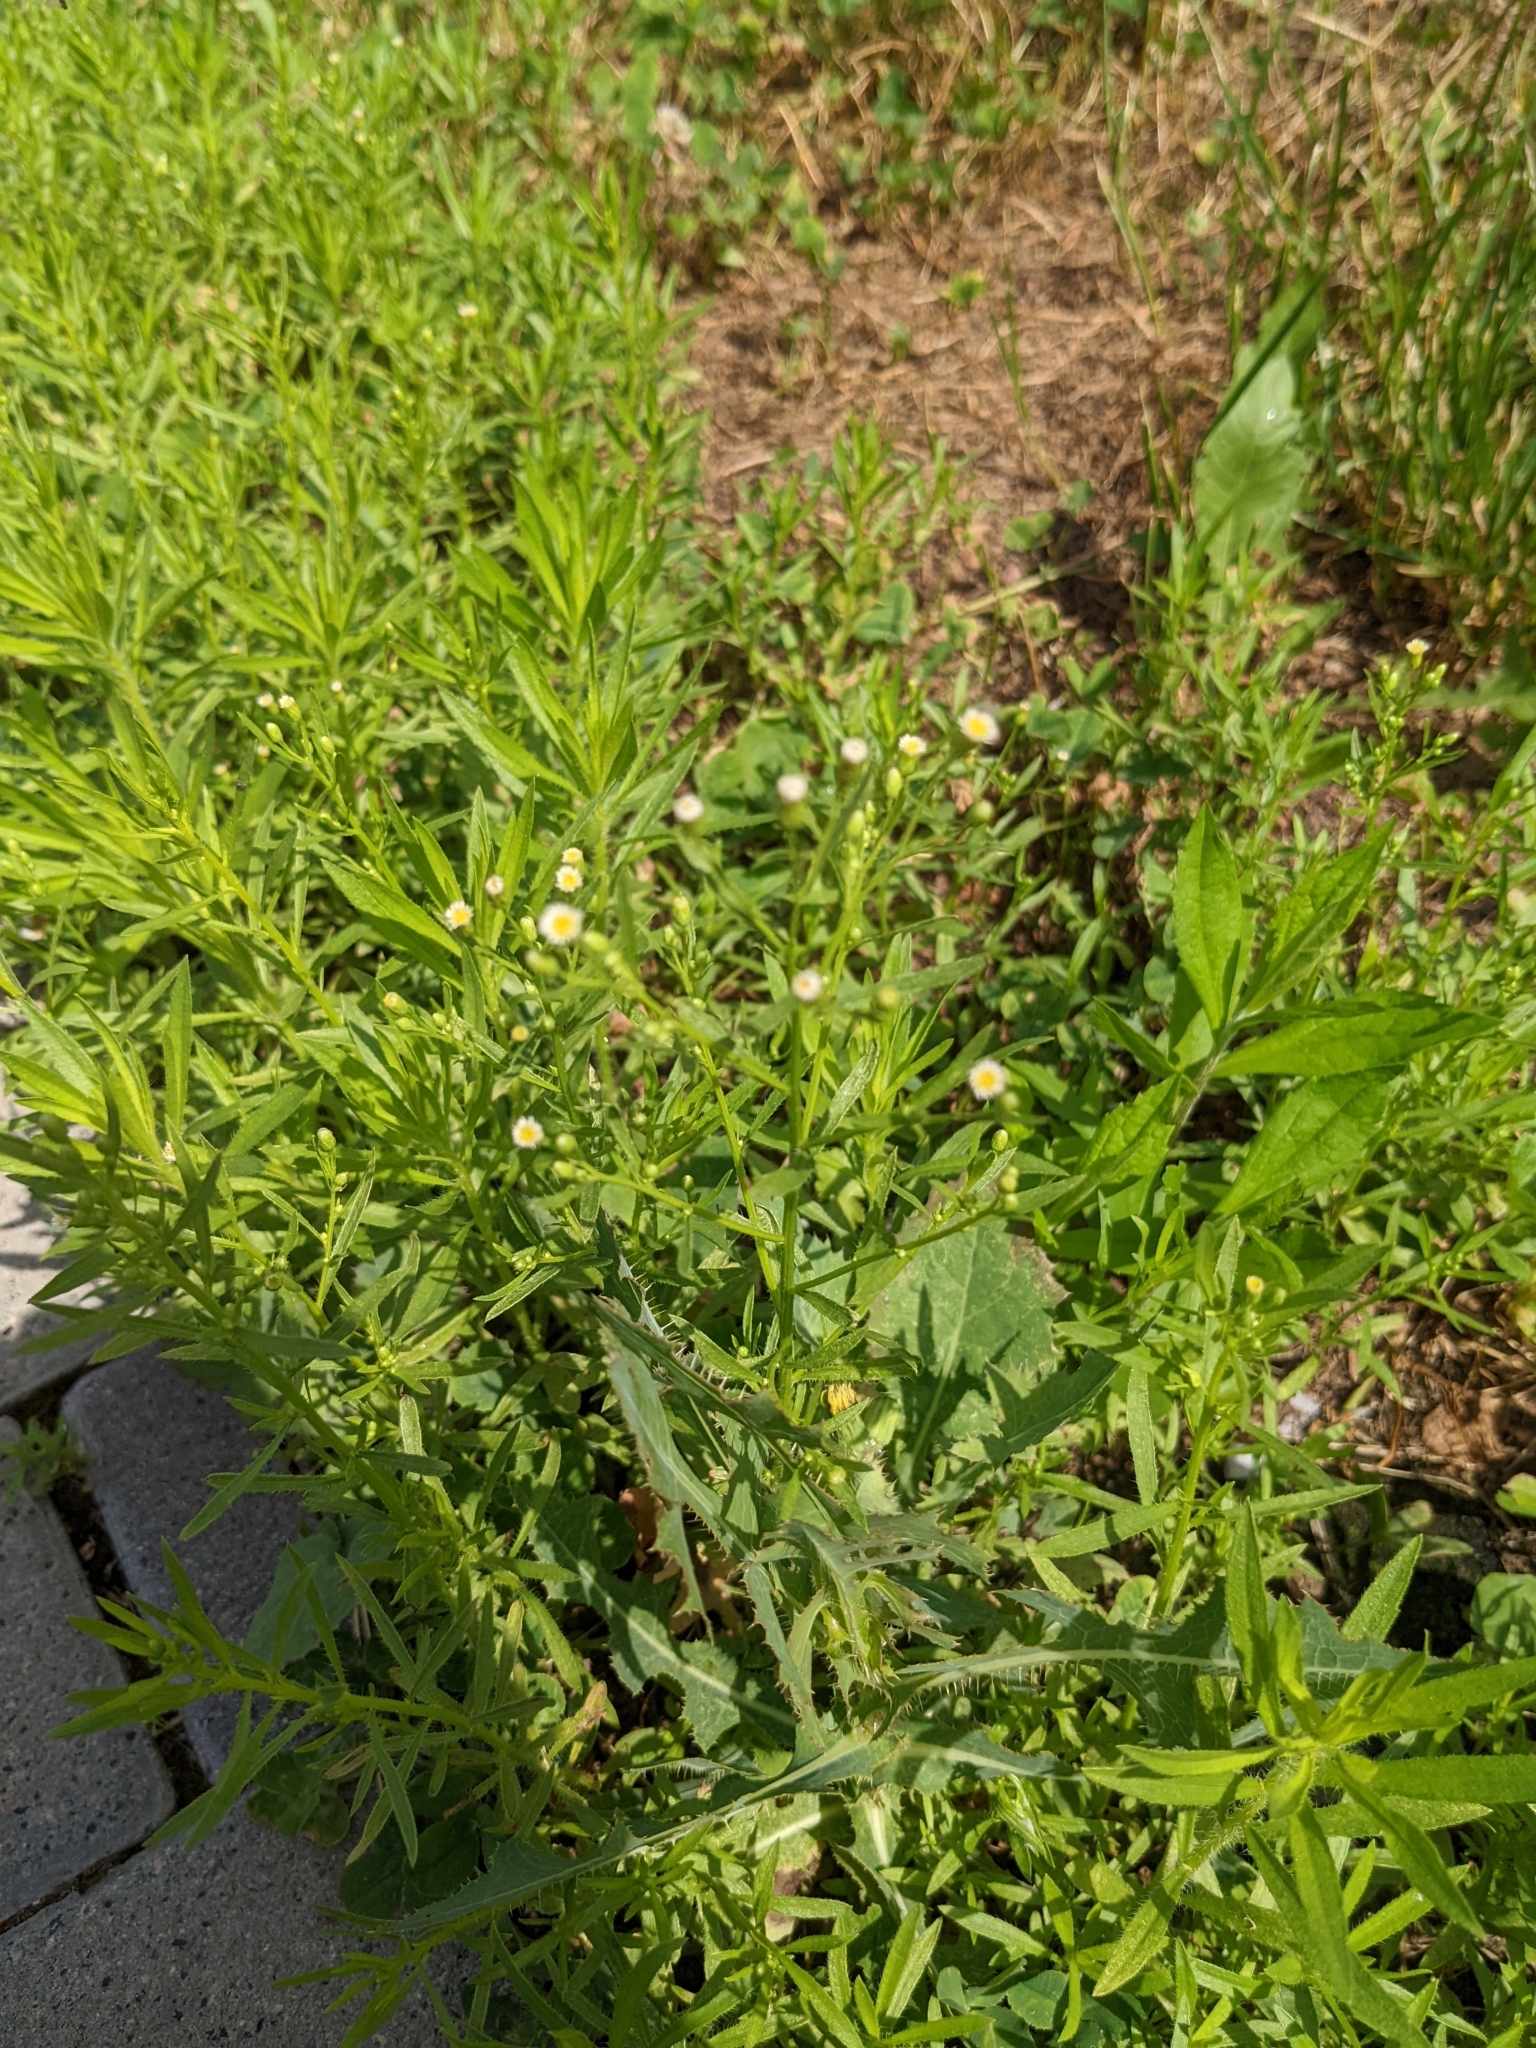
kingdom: Plantae
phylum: Tracheophyta
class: Magnoliopsida
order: Asterales
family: Asteraceae
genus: Erigeron
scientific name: Erigeron canadensis
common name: Canadian fleabane
